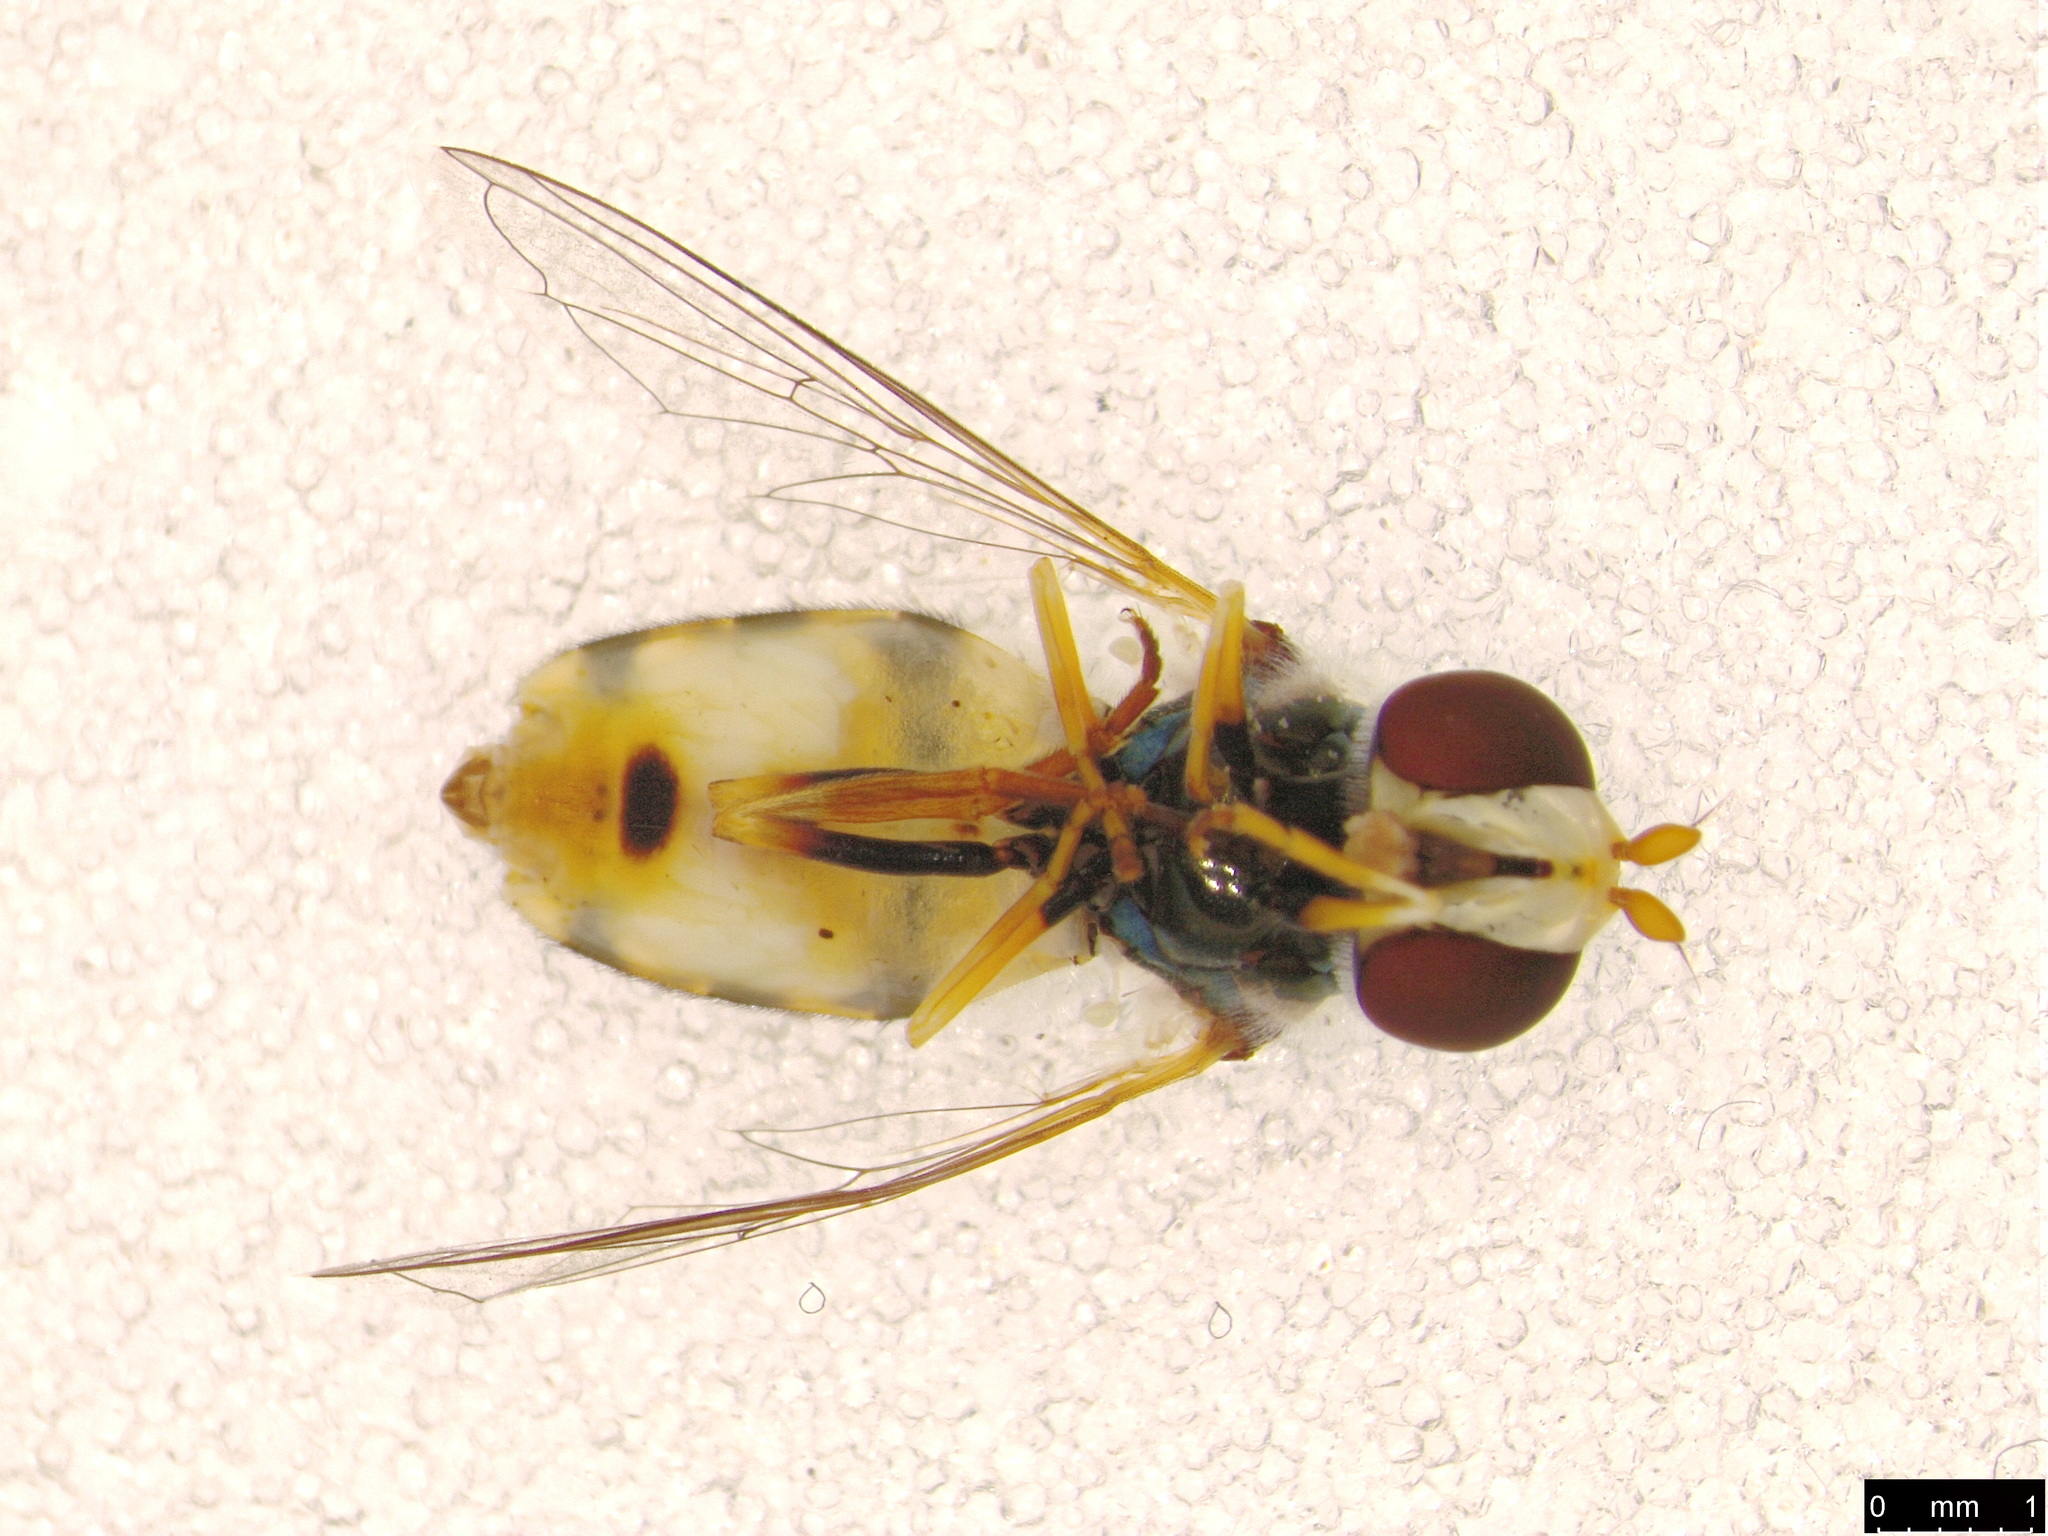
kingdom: Animalia
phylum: Arthropoda
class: Insecta
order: Diptera
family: Syrphidae
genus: Simosyrphus
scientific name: Simosyrphus grandicornis
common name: Hoverfly
